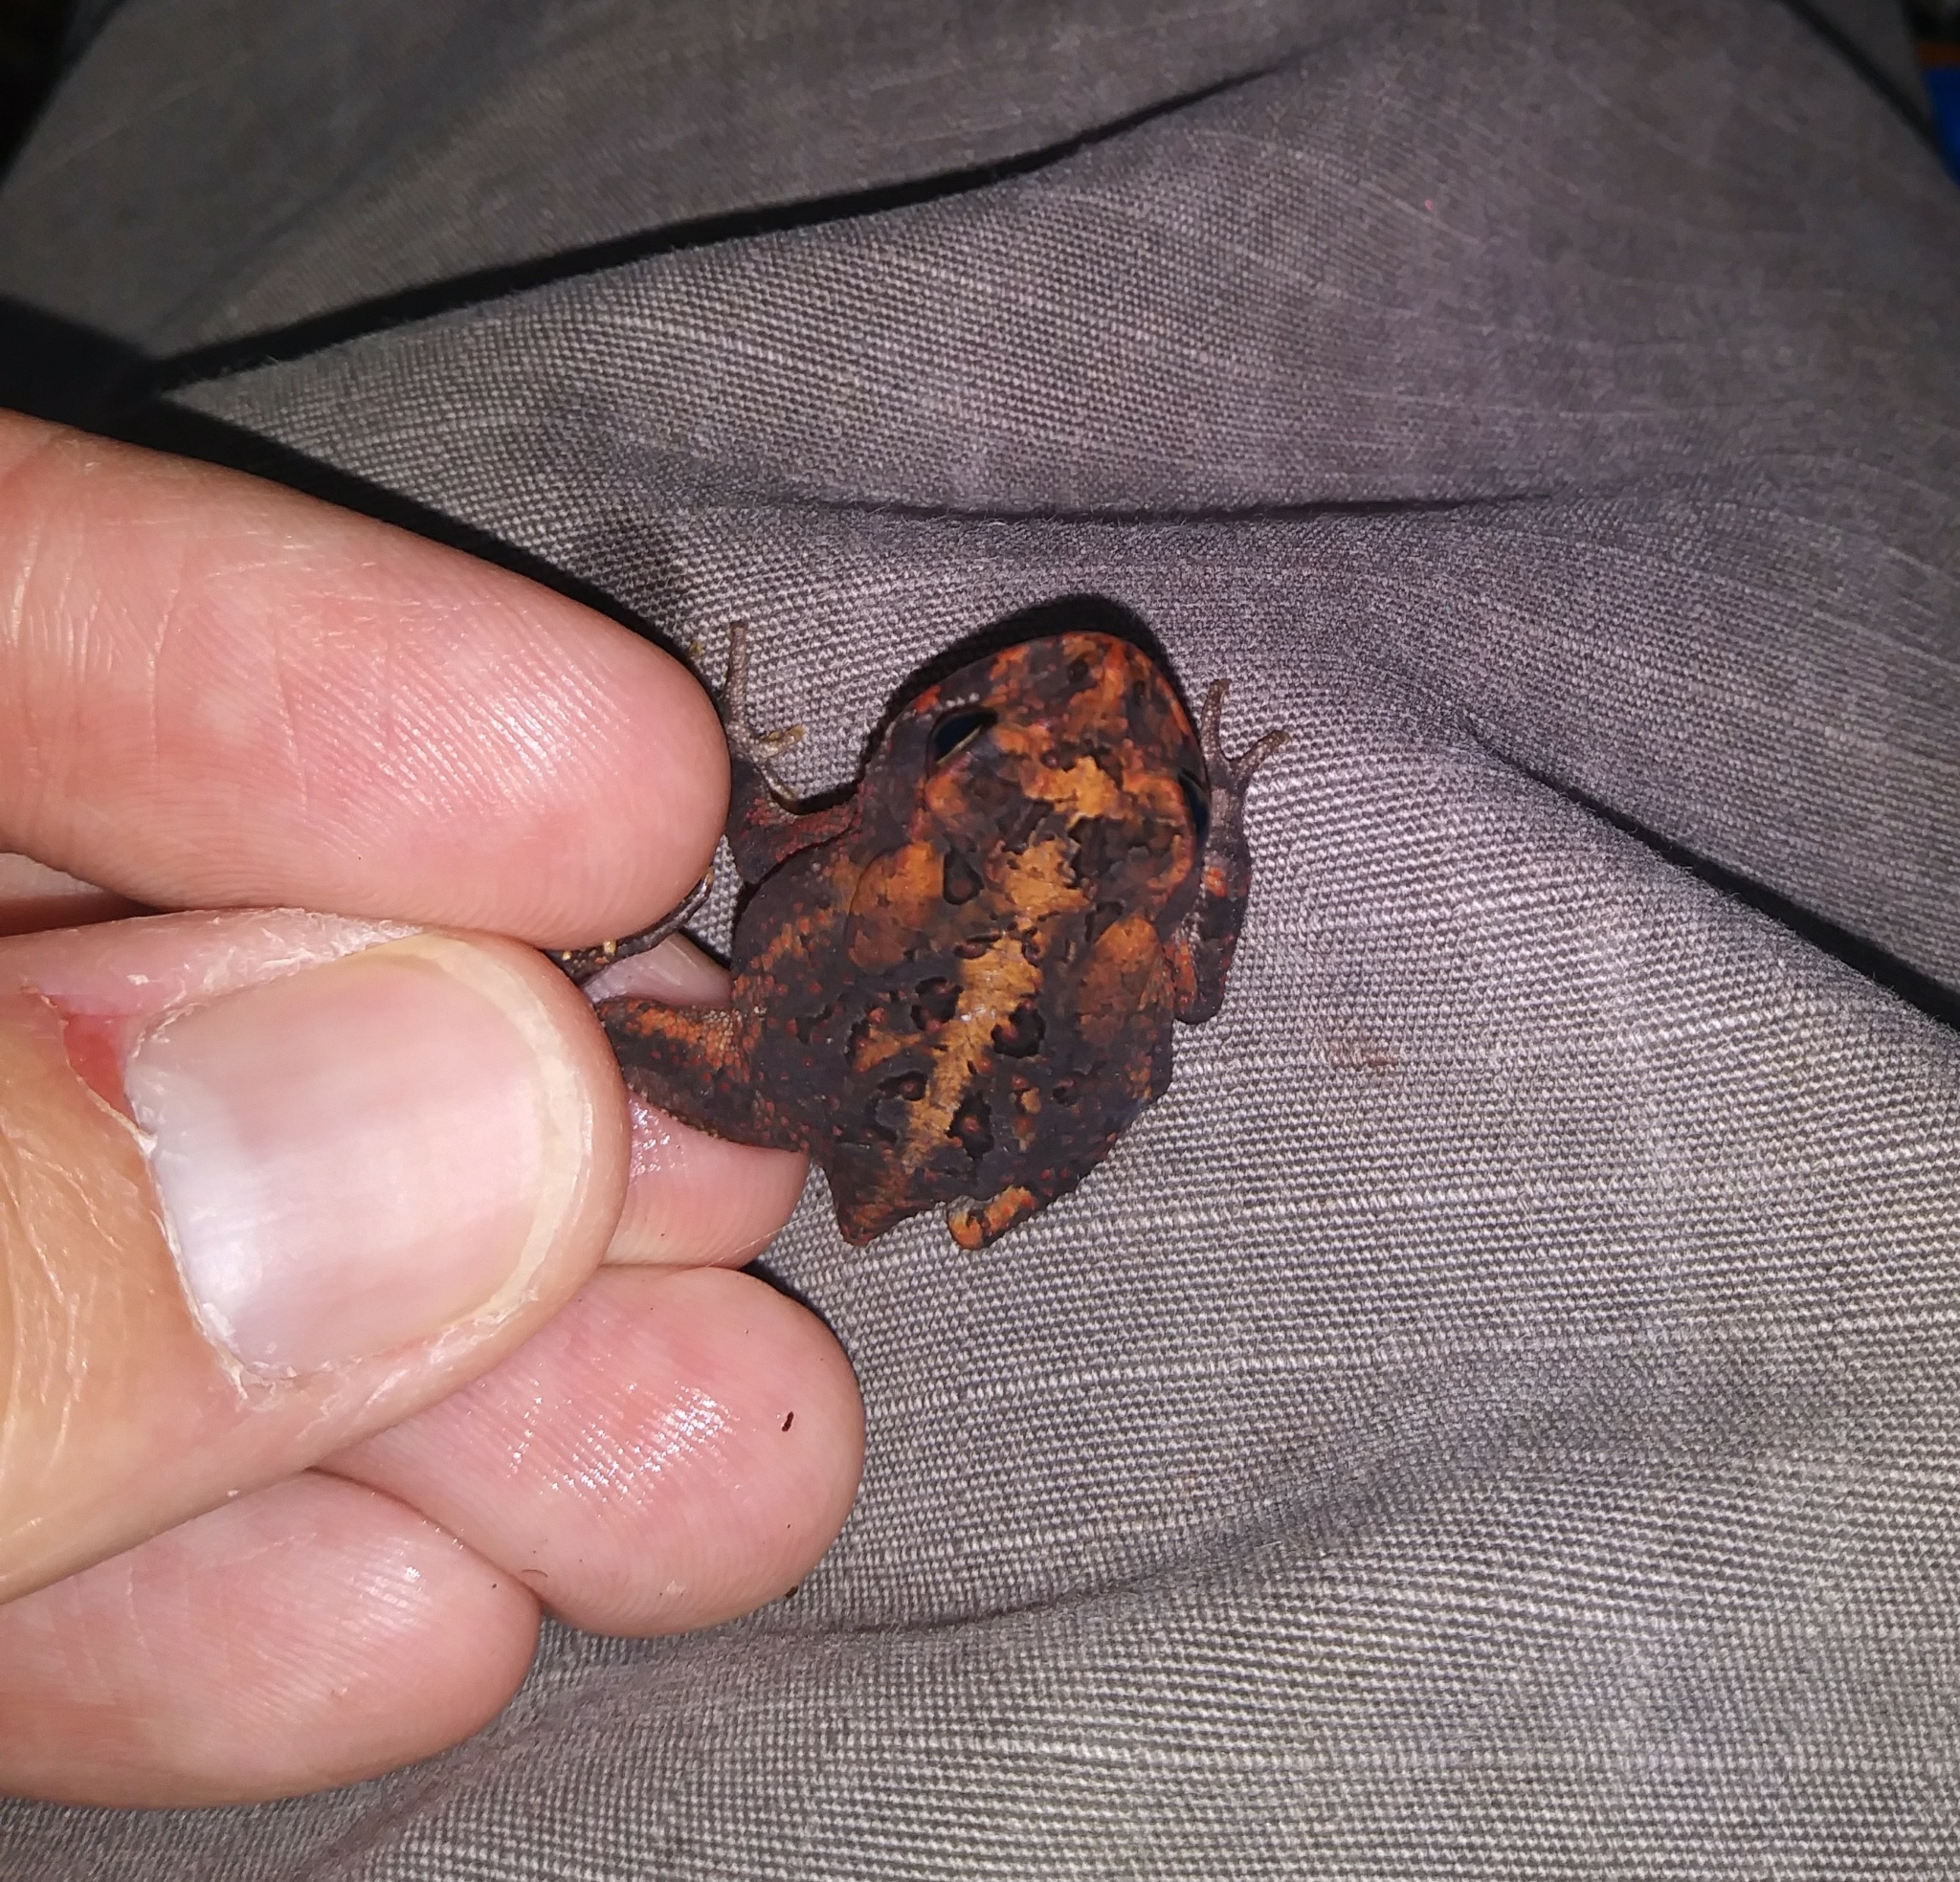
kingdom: Animalia
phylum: Chordata
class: Amphibia
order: Anura
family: Bufonidae
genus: Anaxyrus
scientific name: Anaxyrus terrestris
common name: Southern toad
